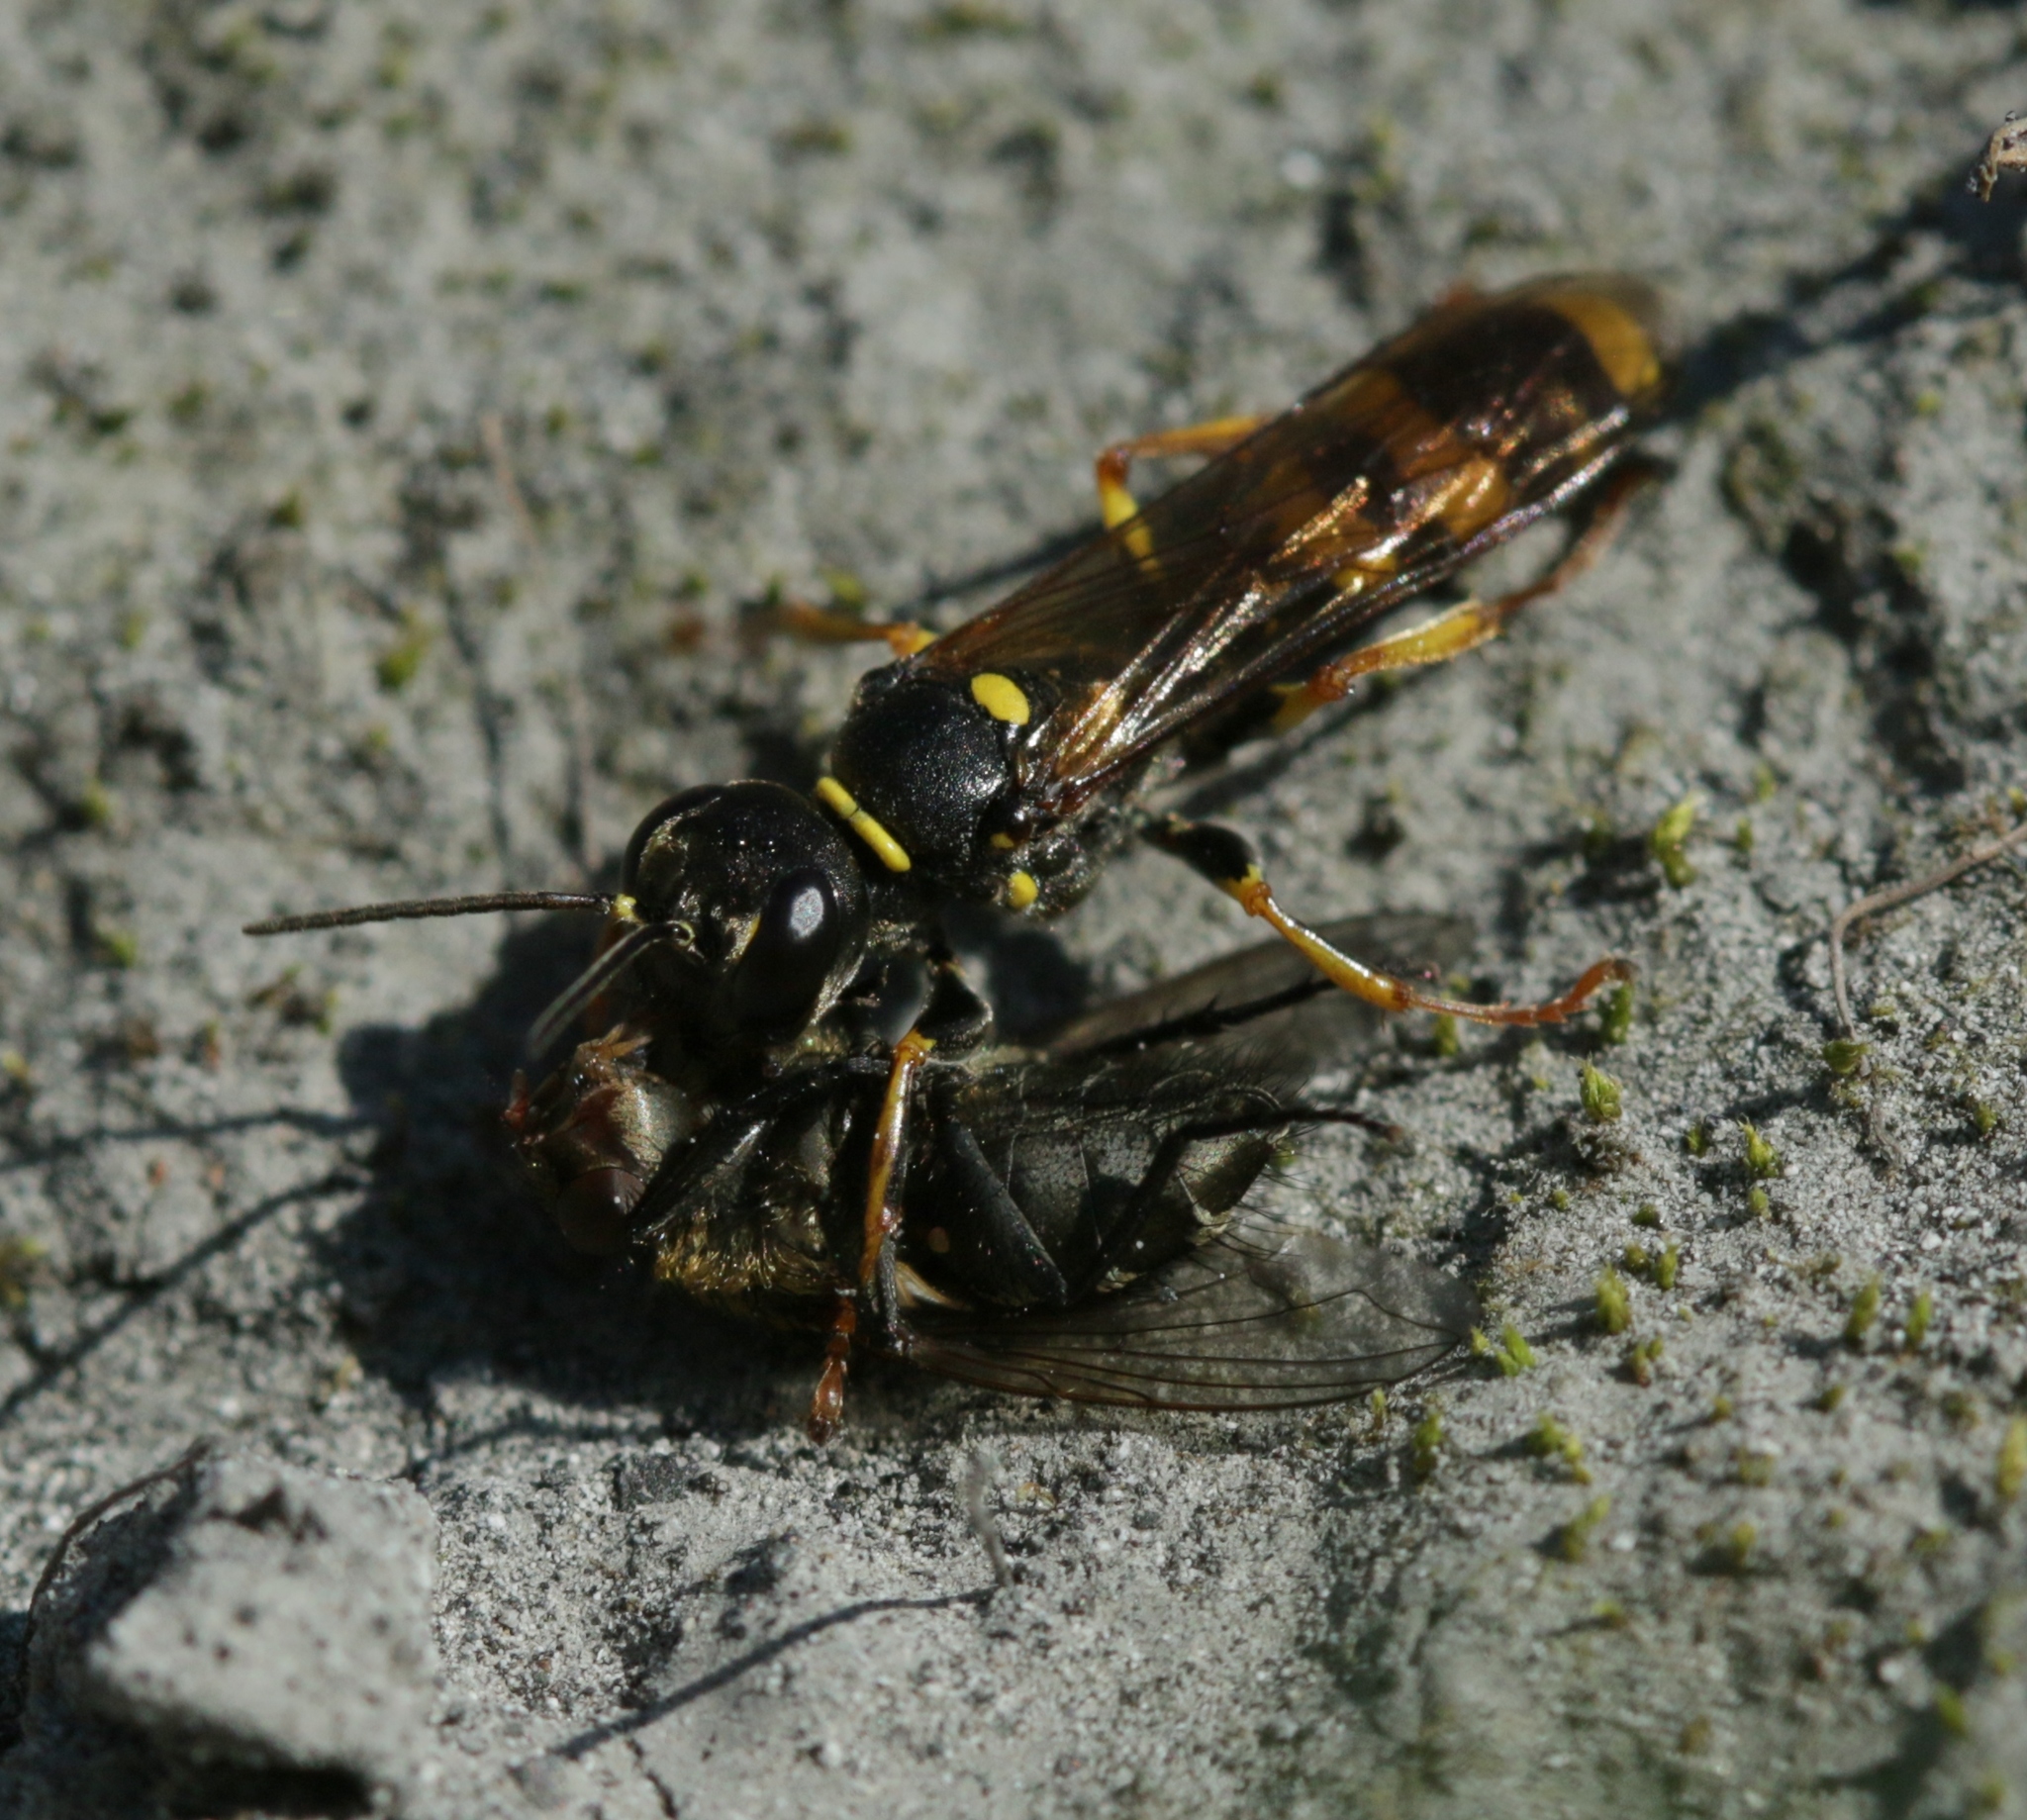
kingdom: Animalia
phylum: Arthropoda
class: Insecta
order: Hymenoptera
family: Crabronidae
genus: Mellinus
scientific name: Mellinus arvensis
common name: Field digger wasp
